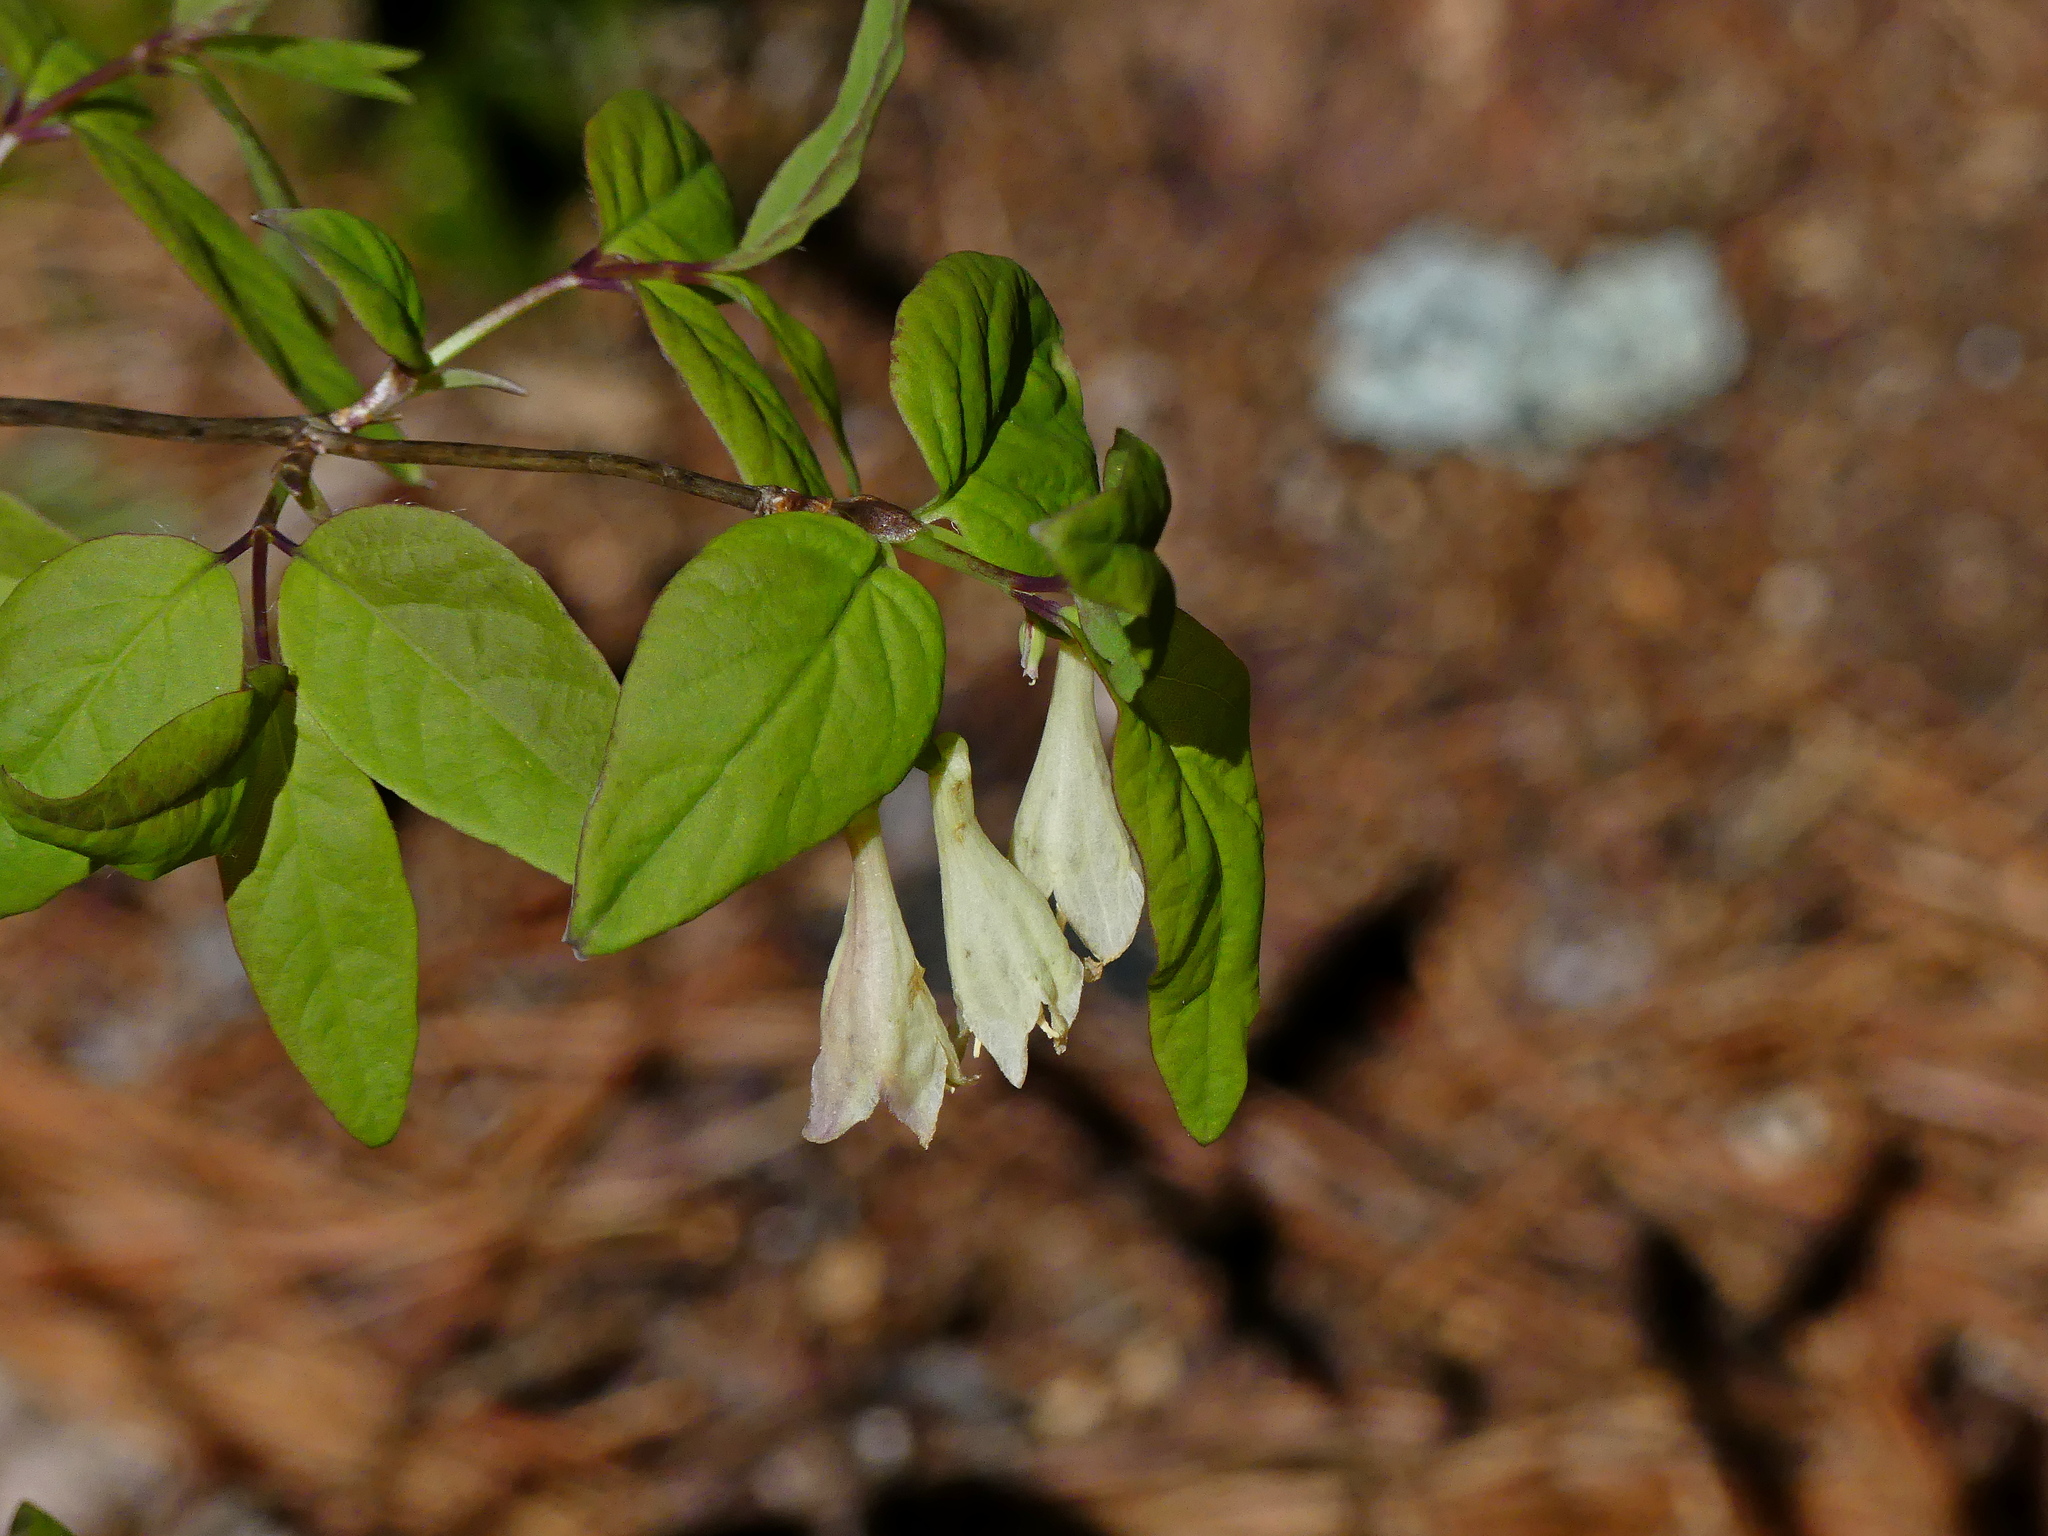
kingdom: Plantae
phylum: Tracheophyta
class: Magnoliopsida
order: Dipsacales
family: Caprifoliaceae
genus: Lonicera
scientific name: Lonicera canadensis
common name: American fly-honeysuckle
